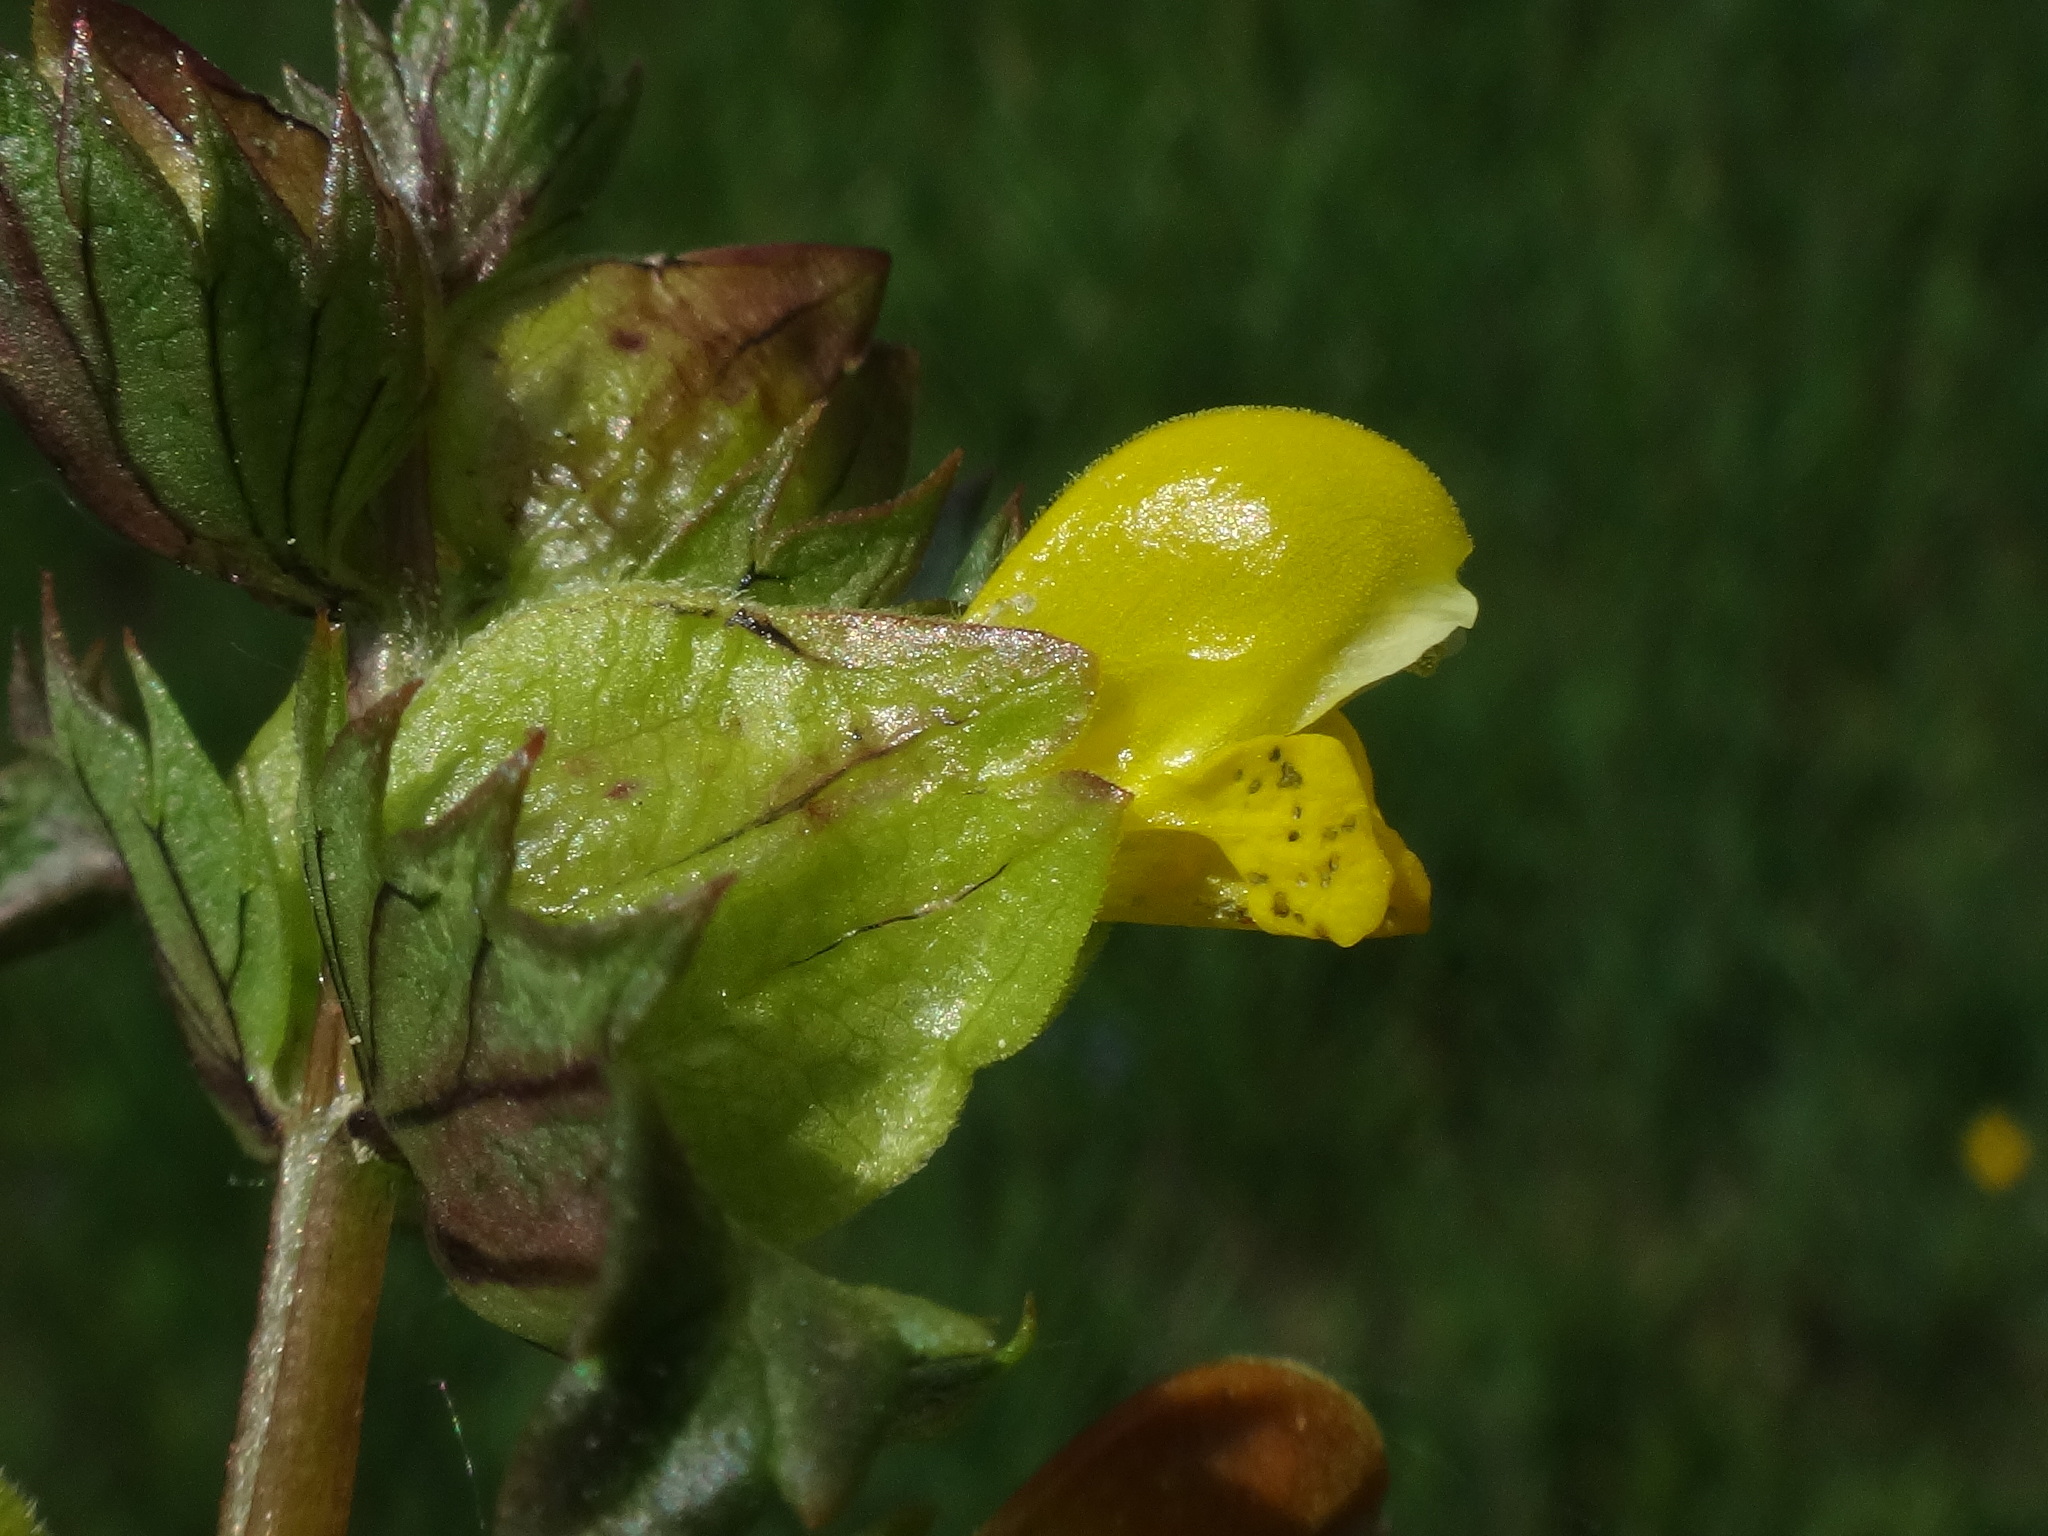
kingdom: Plantae
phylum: Tracheophyta
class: Magnoliopsida
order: Lamiales
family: Orobanchaceae
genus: Rhinanthus
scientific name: Rhinanthus minor
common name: Yellow-rattle
